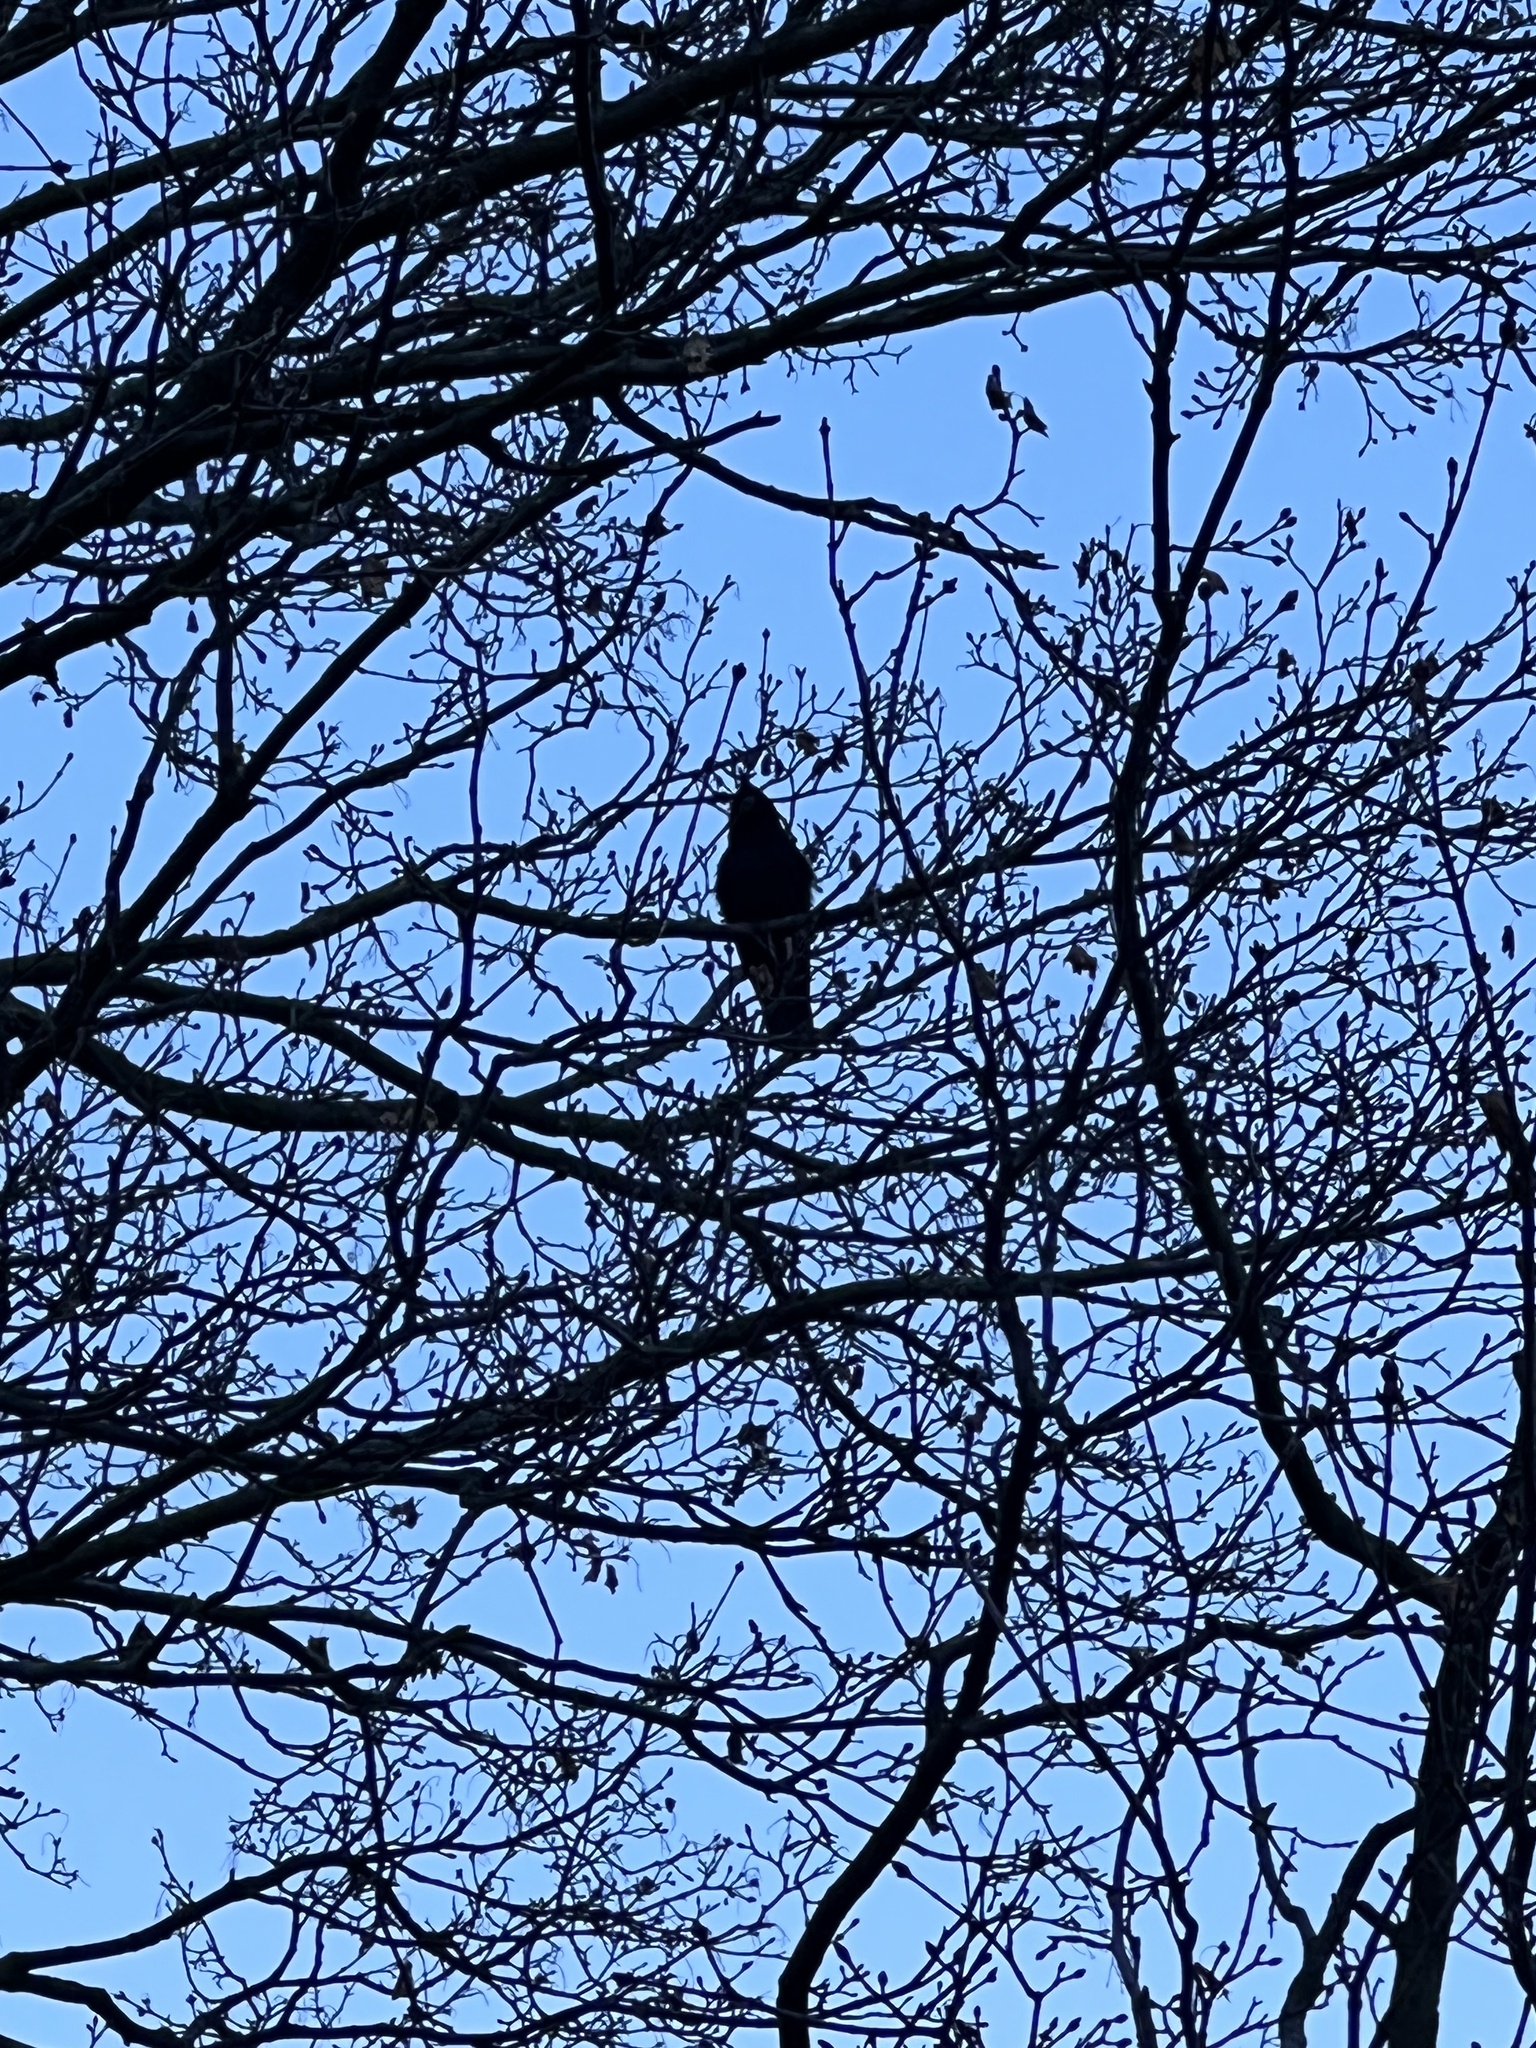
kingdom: Animalia
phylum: Chordata
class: Aves
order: Passeriformes
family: Corvidae
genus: Corvus
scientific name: Corvus ossifragus
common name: Fish crow
